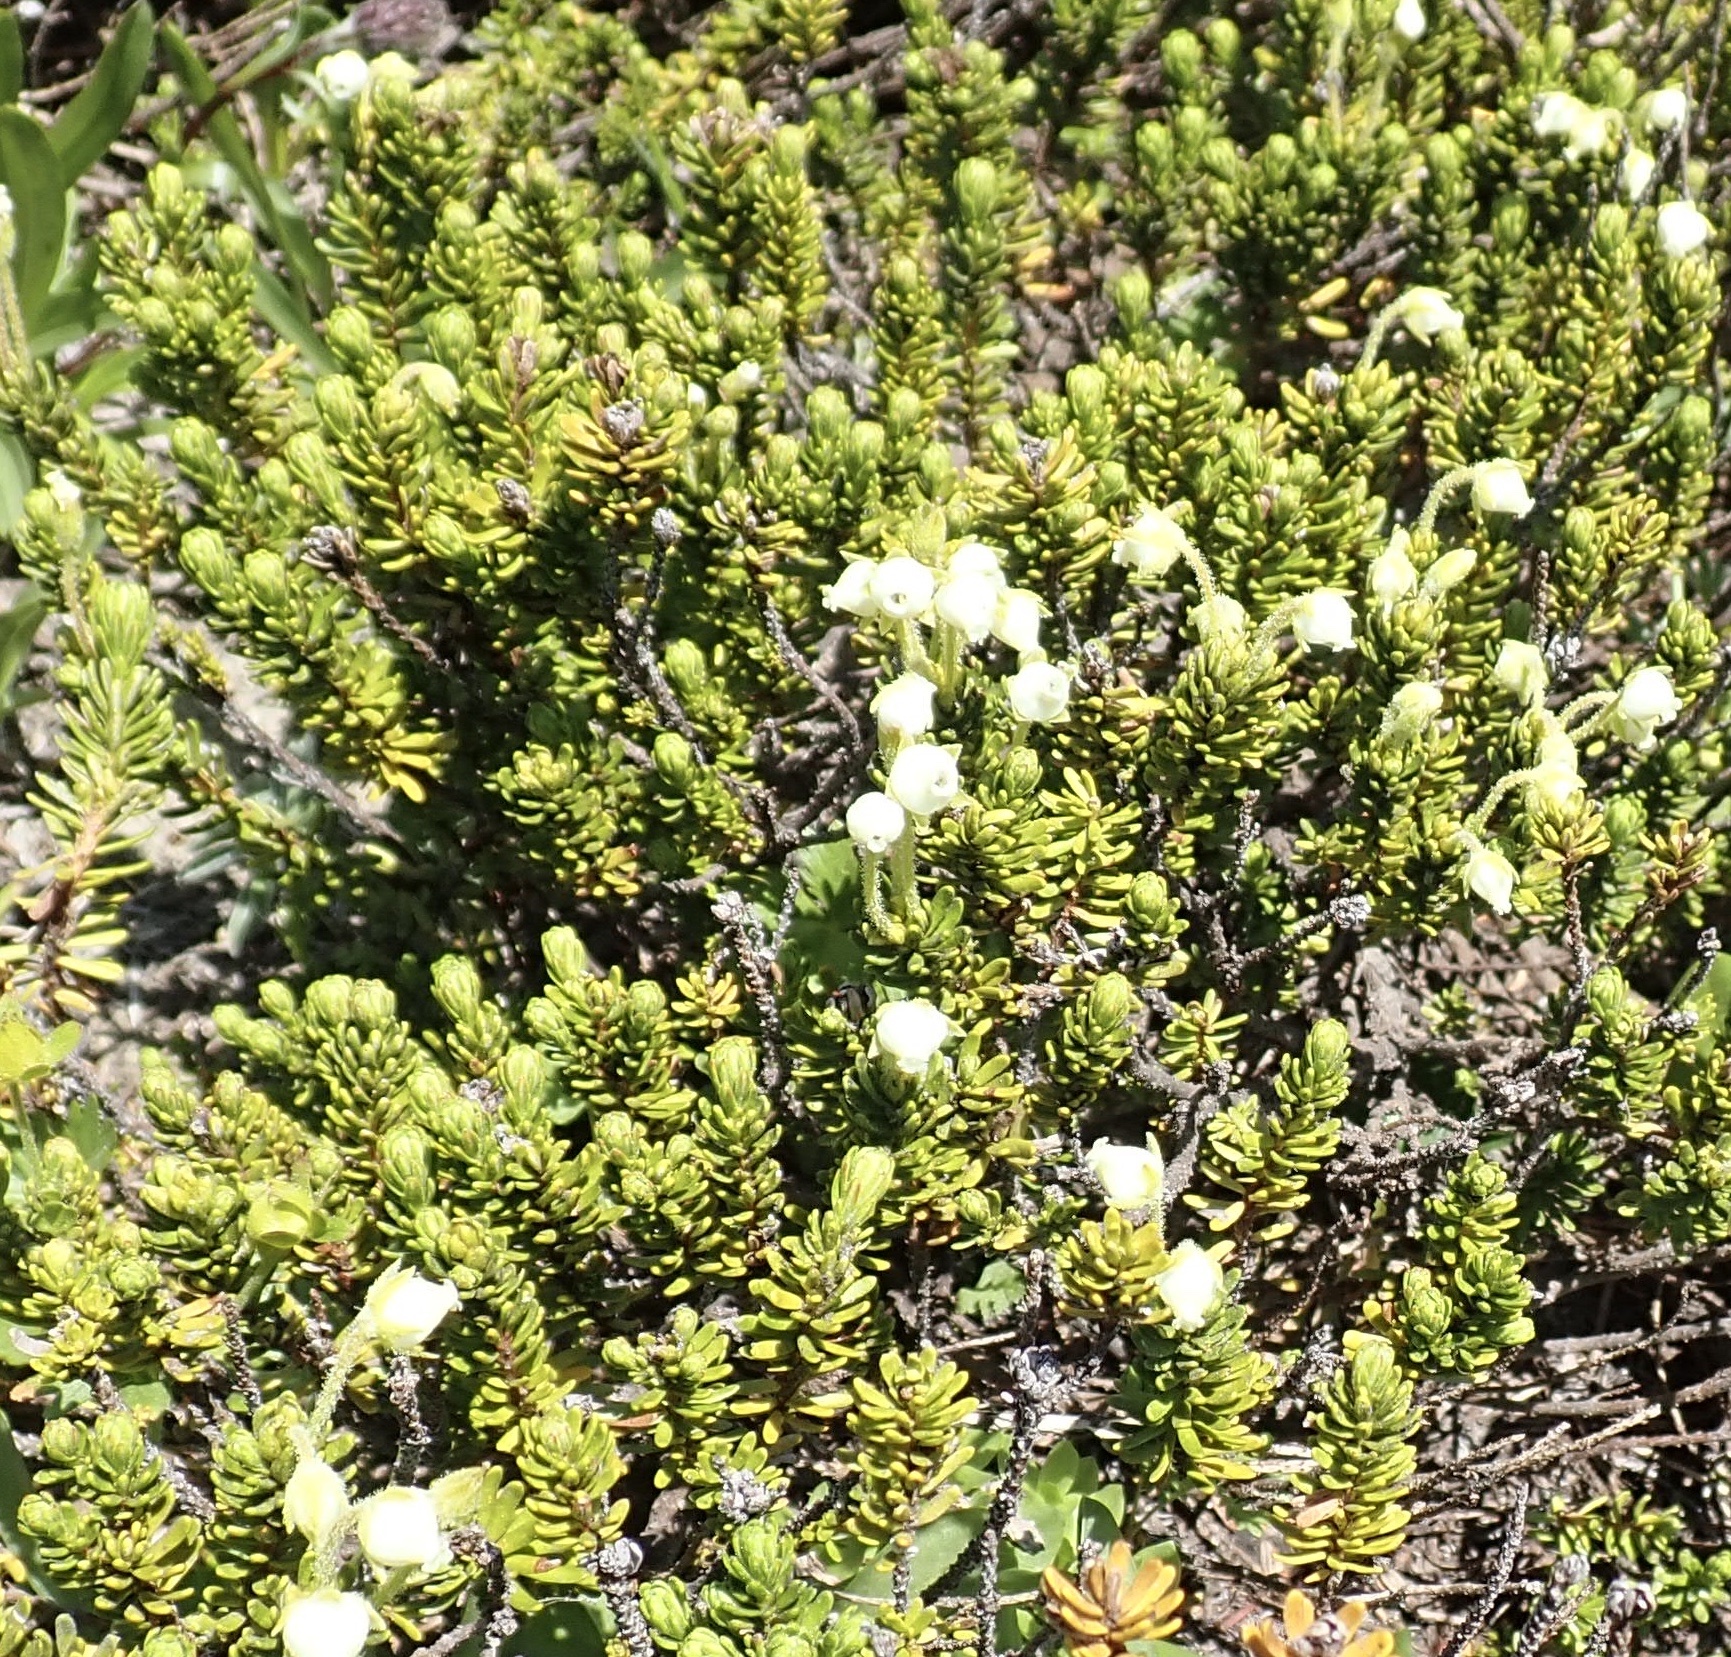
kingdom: Plantae
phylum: Tracheophyta
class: Magnoliopsida
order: Ericales
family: Ericaceae
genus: Phyllodoce
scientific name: Phyllodoce glanduliflora
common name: Cream mountain heather
